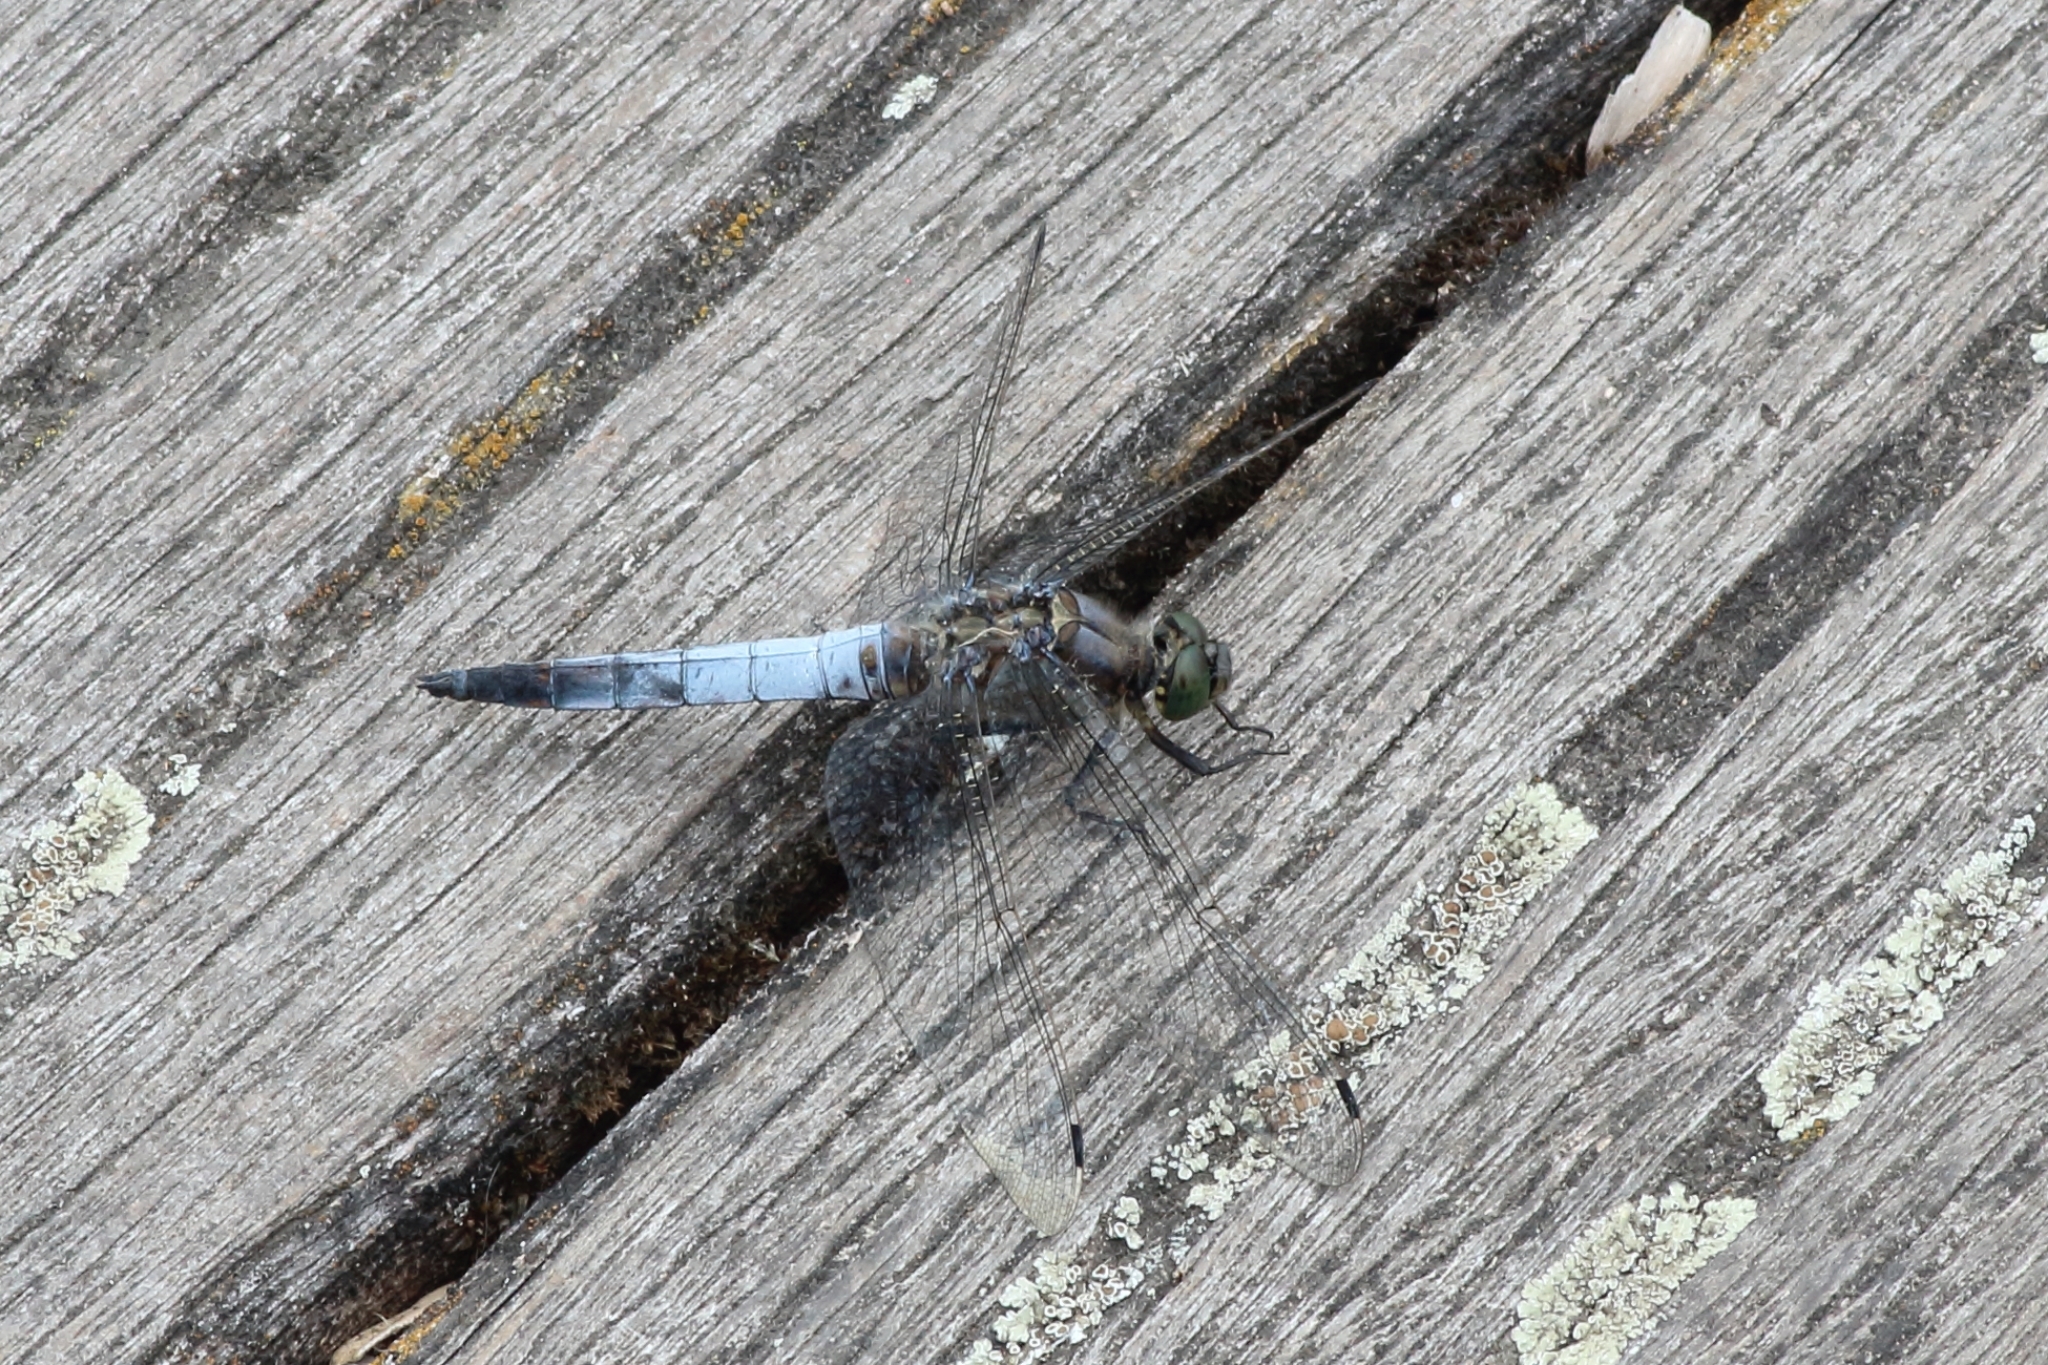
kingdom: Animalia
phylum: Arthropoda
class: Insecta
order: Odonata
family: Libellulidae
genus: Orthetrum
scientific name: Orthetrum cancellatum
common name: Black-tailed skimmer
